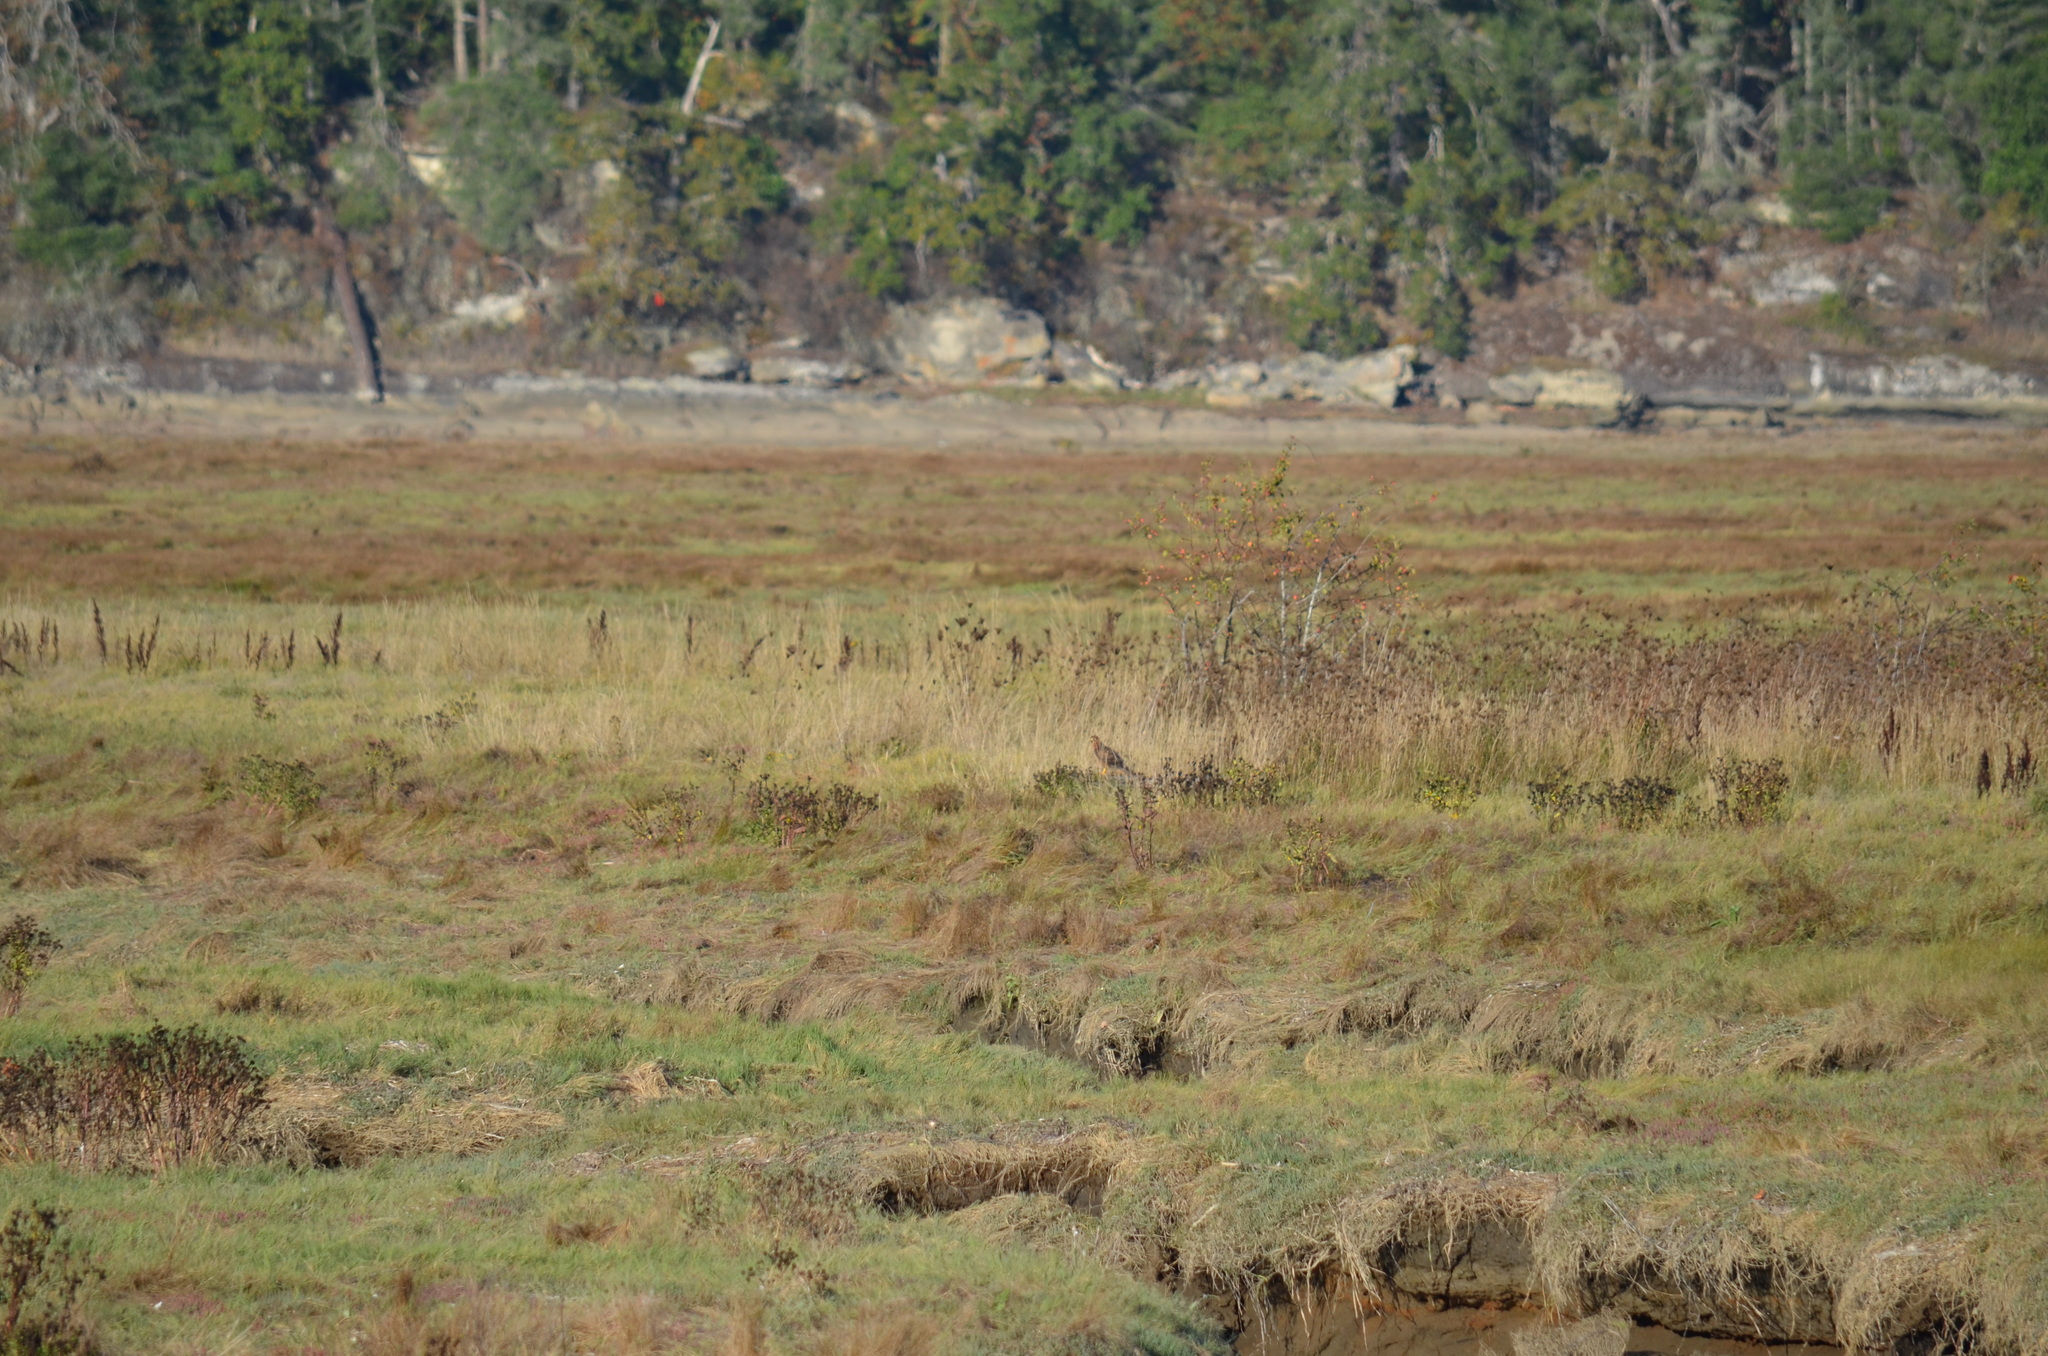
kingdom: Animalia
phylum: Chordata
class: Aves
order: Accipitriformes
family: Accipitridae
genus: Circus
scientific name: Circus cyaneus
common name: Hen harrier
